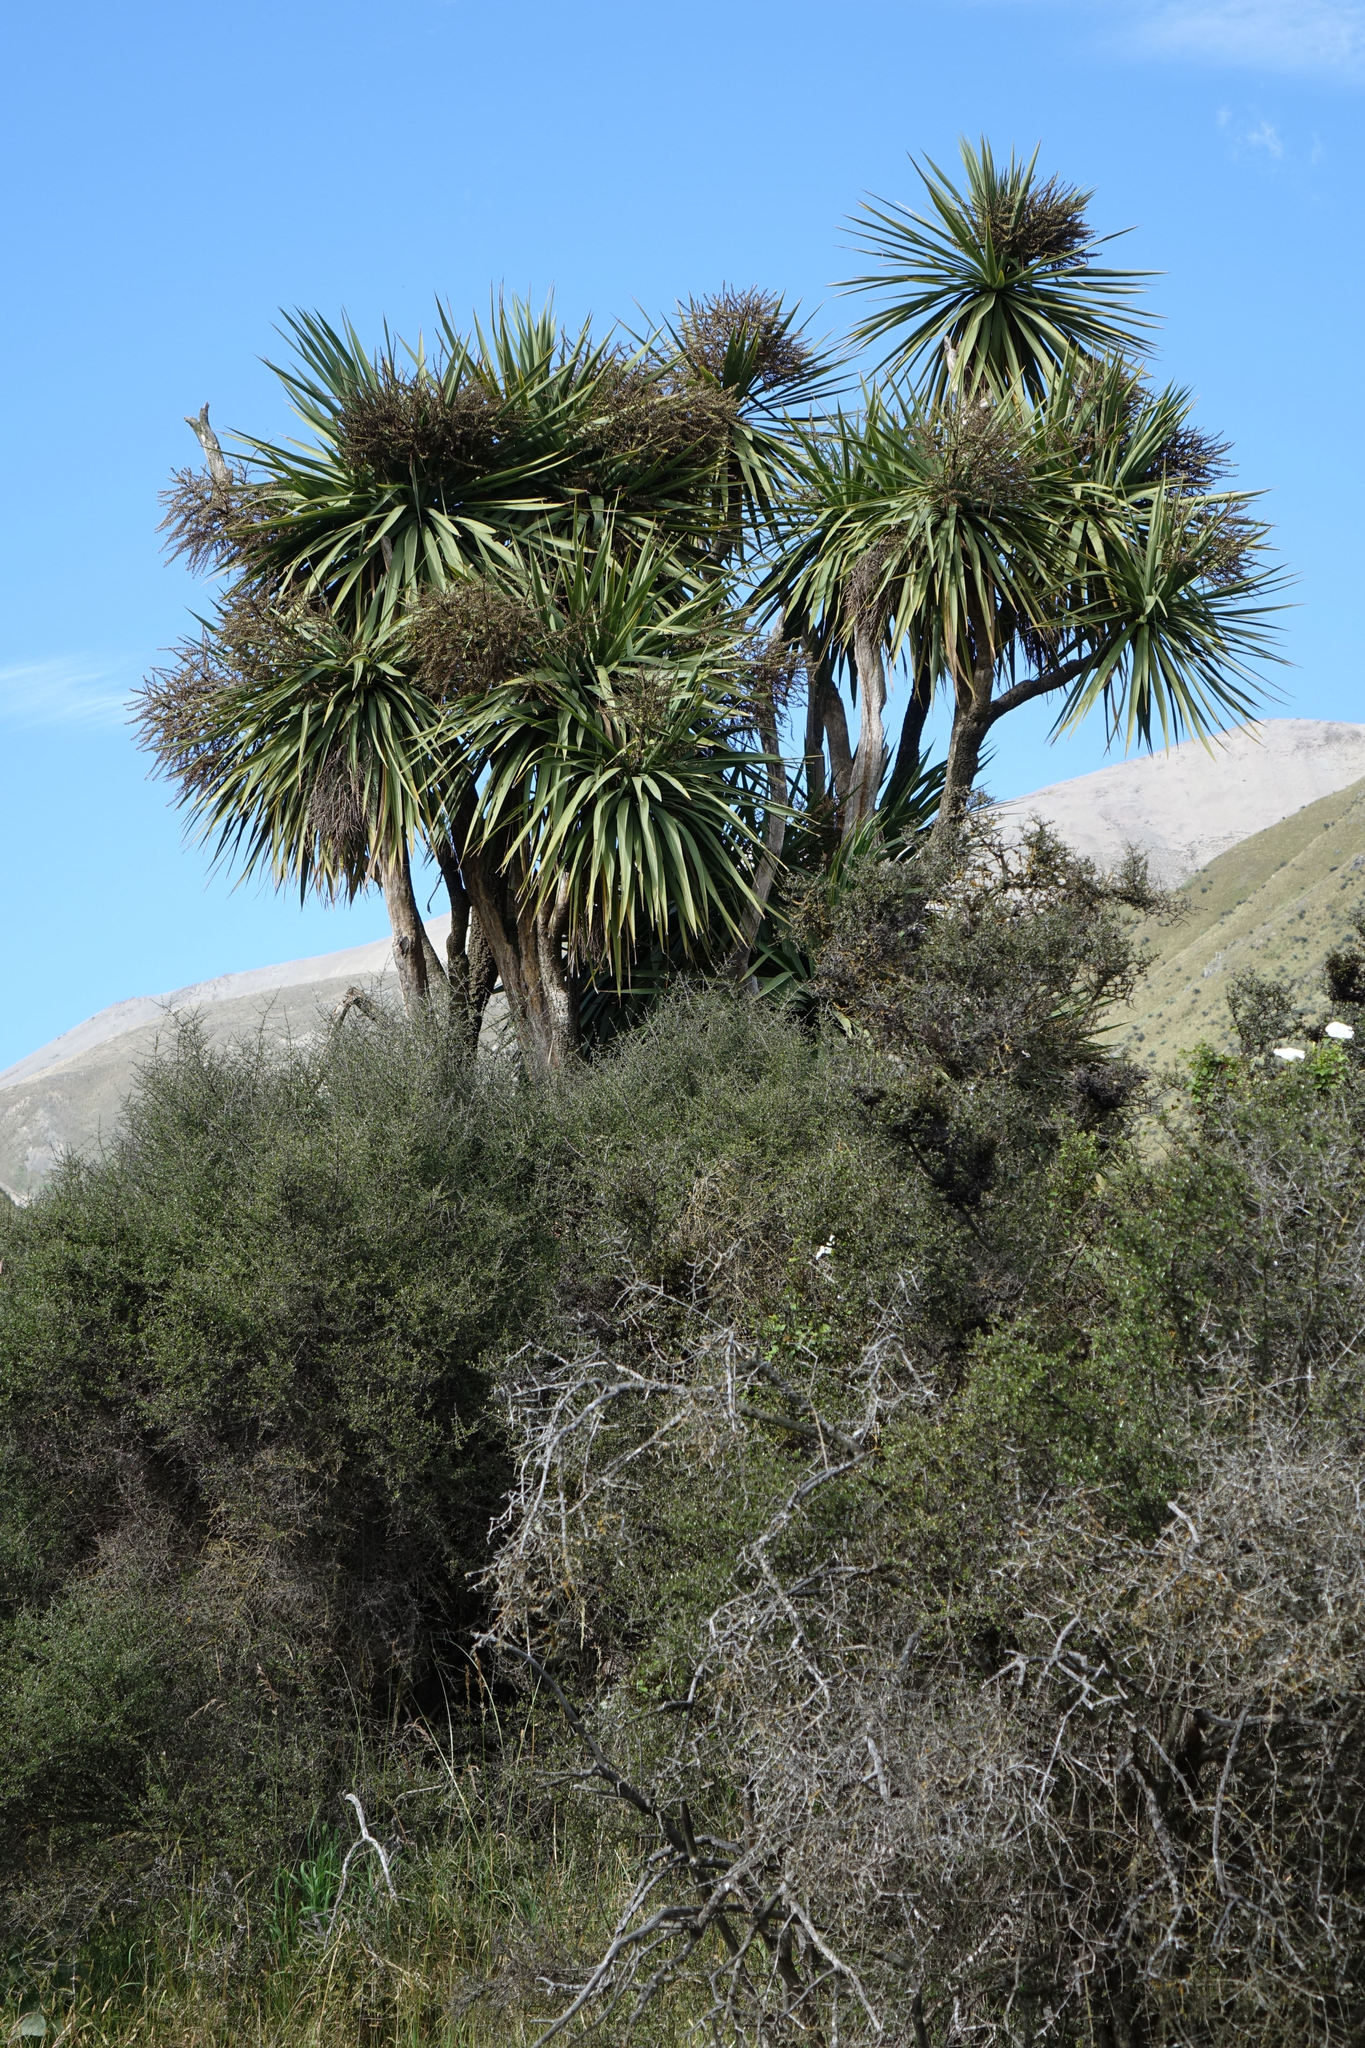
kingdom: Plantae
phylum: Tracheophyta
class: Liliopsida
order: Asparagales
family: Asparagaceae
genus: Cordyline
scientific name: Cordyline australis
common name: Cabbage-palm
